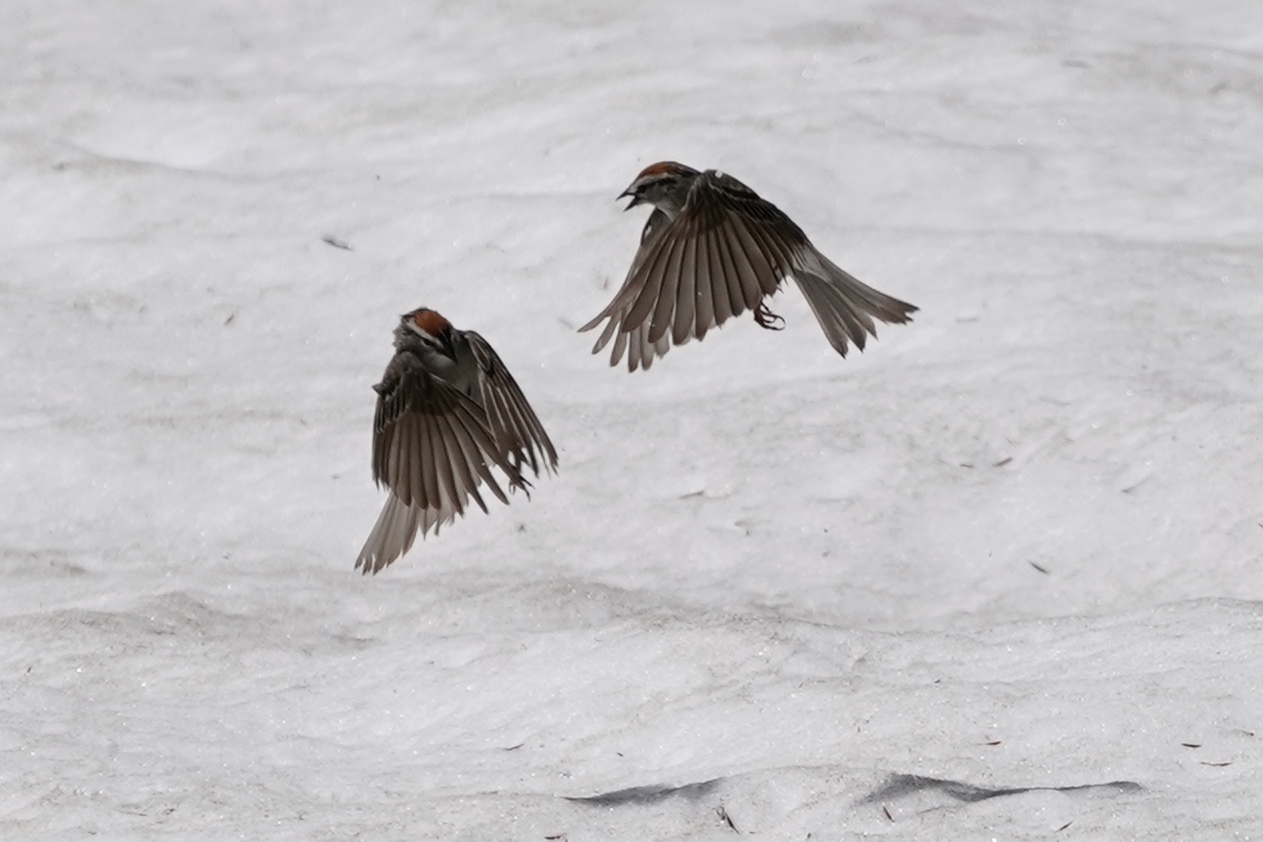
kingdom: Animalia
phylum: Chordata
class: Aves
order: Passeriformes
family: Passerellidae
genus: Spizella
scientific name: Spizella passerina
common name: Chipping sparrow
